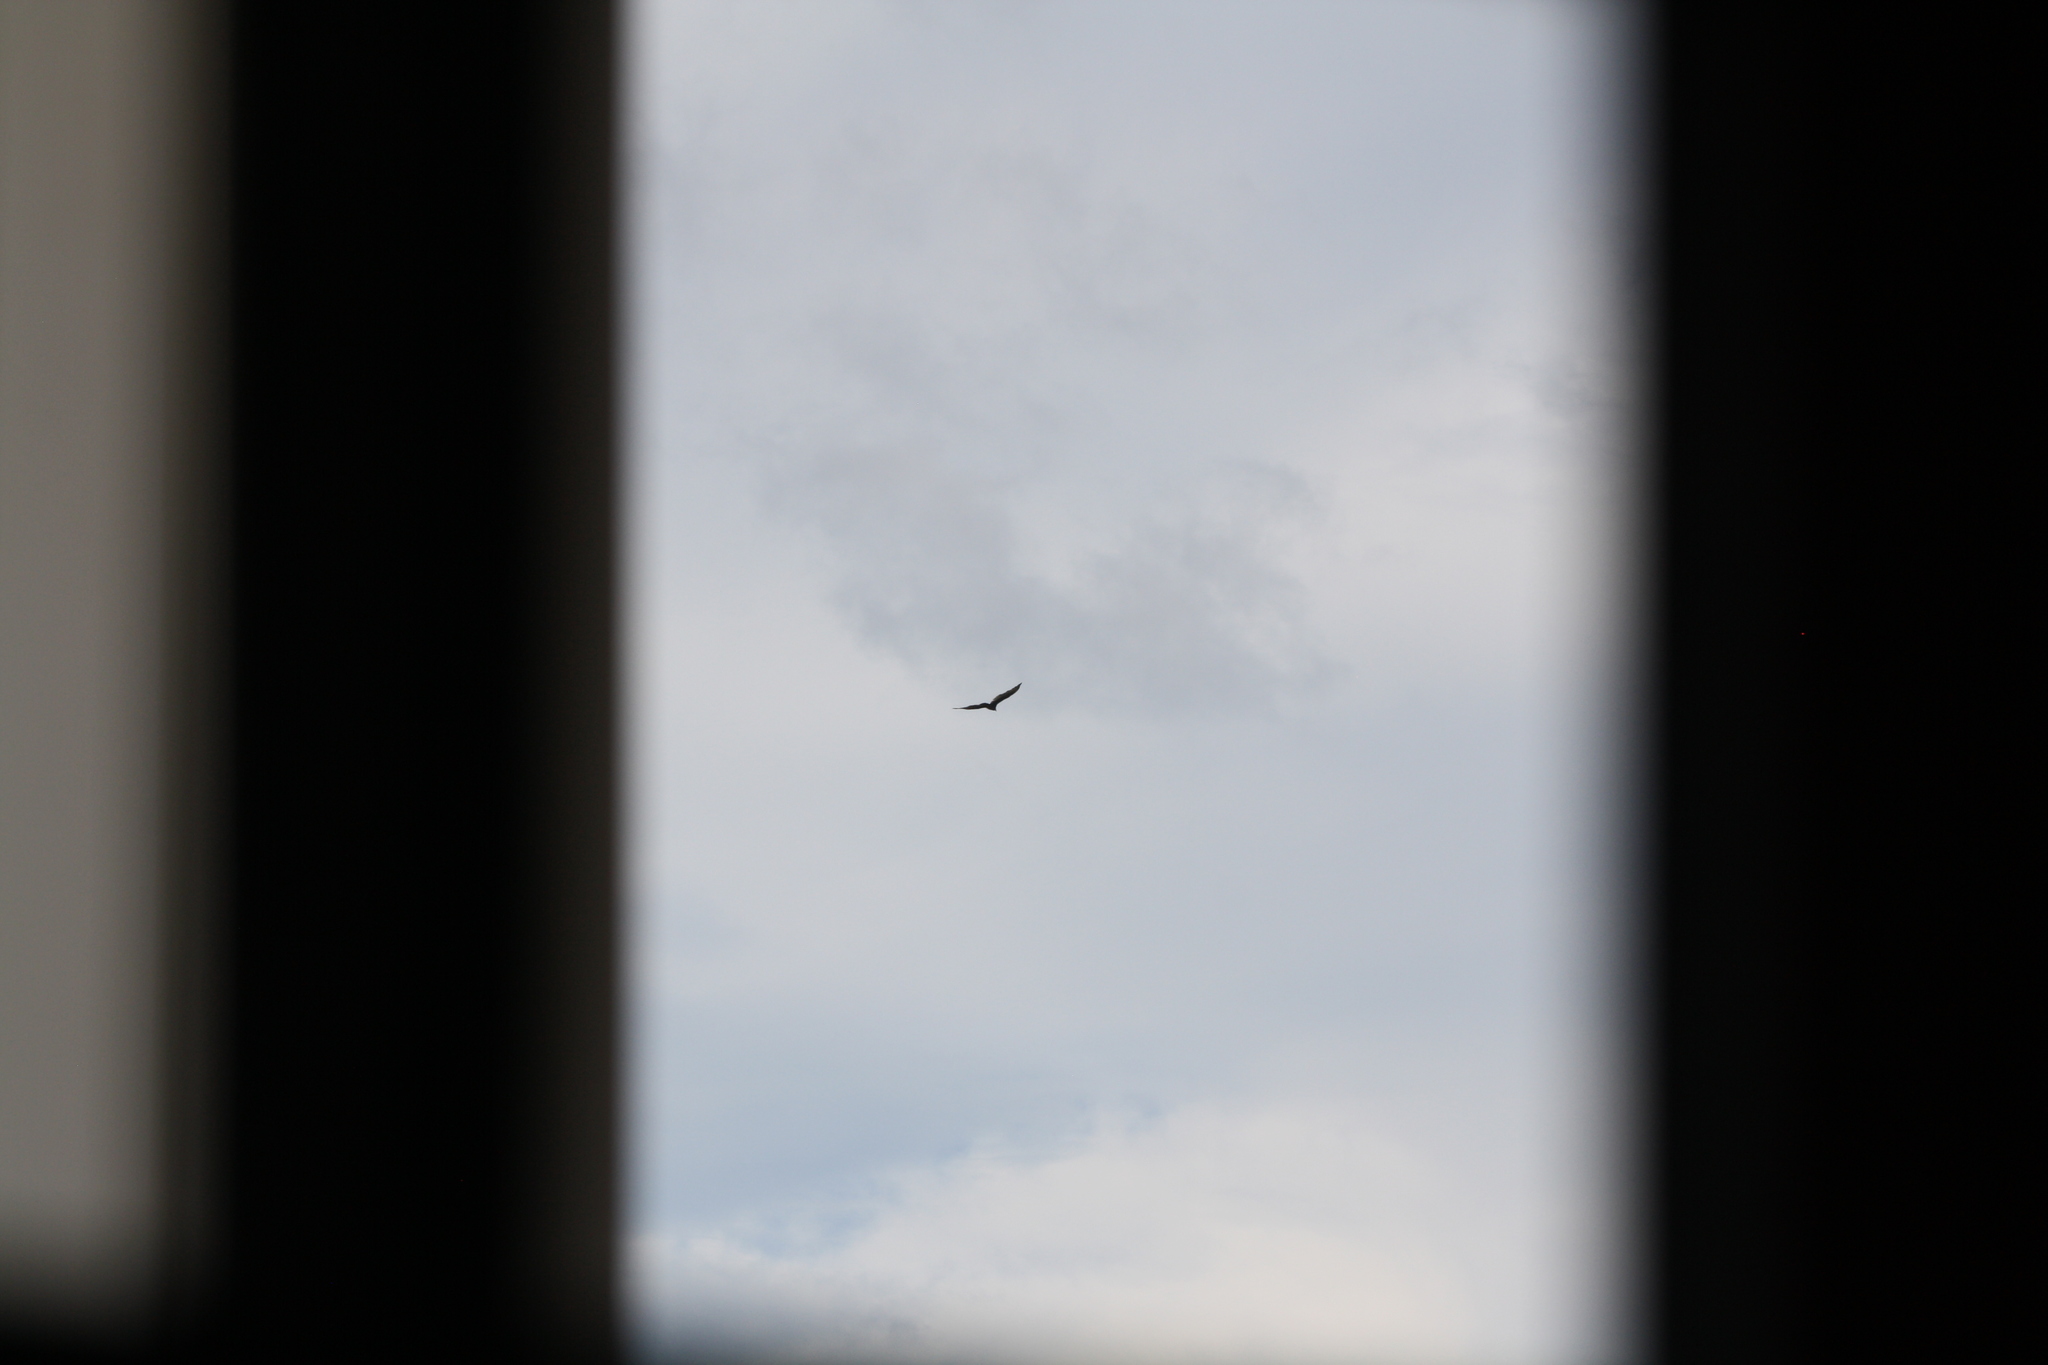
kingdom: Animalia
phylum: Chordata
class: Aves
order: Accipitriformes
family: Cathartidae
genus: Cathartes
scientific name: Cathartes aura
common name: Turkey vulture
